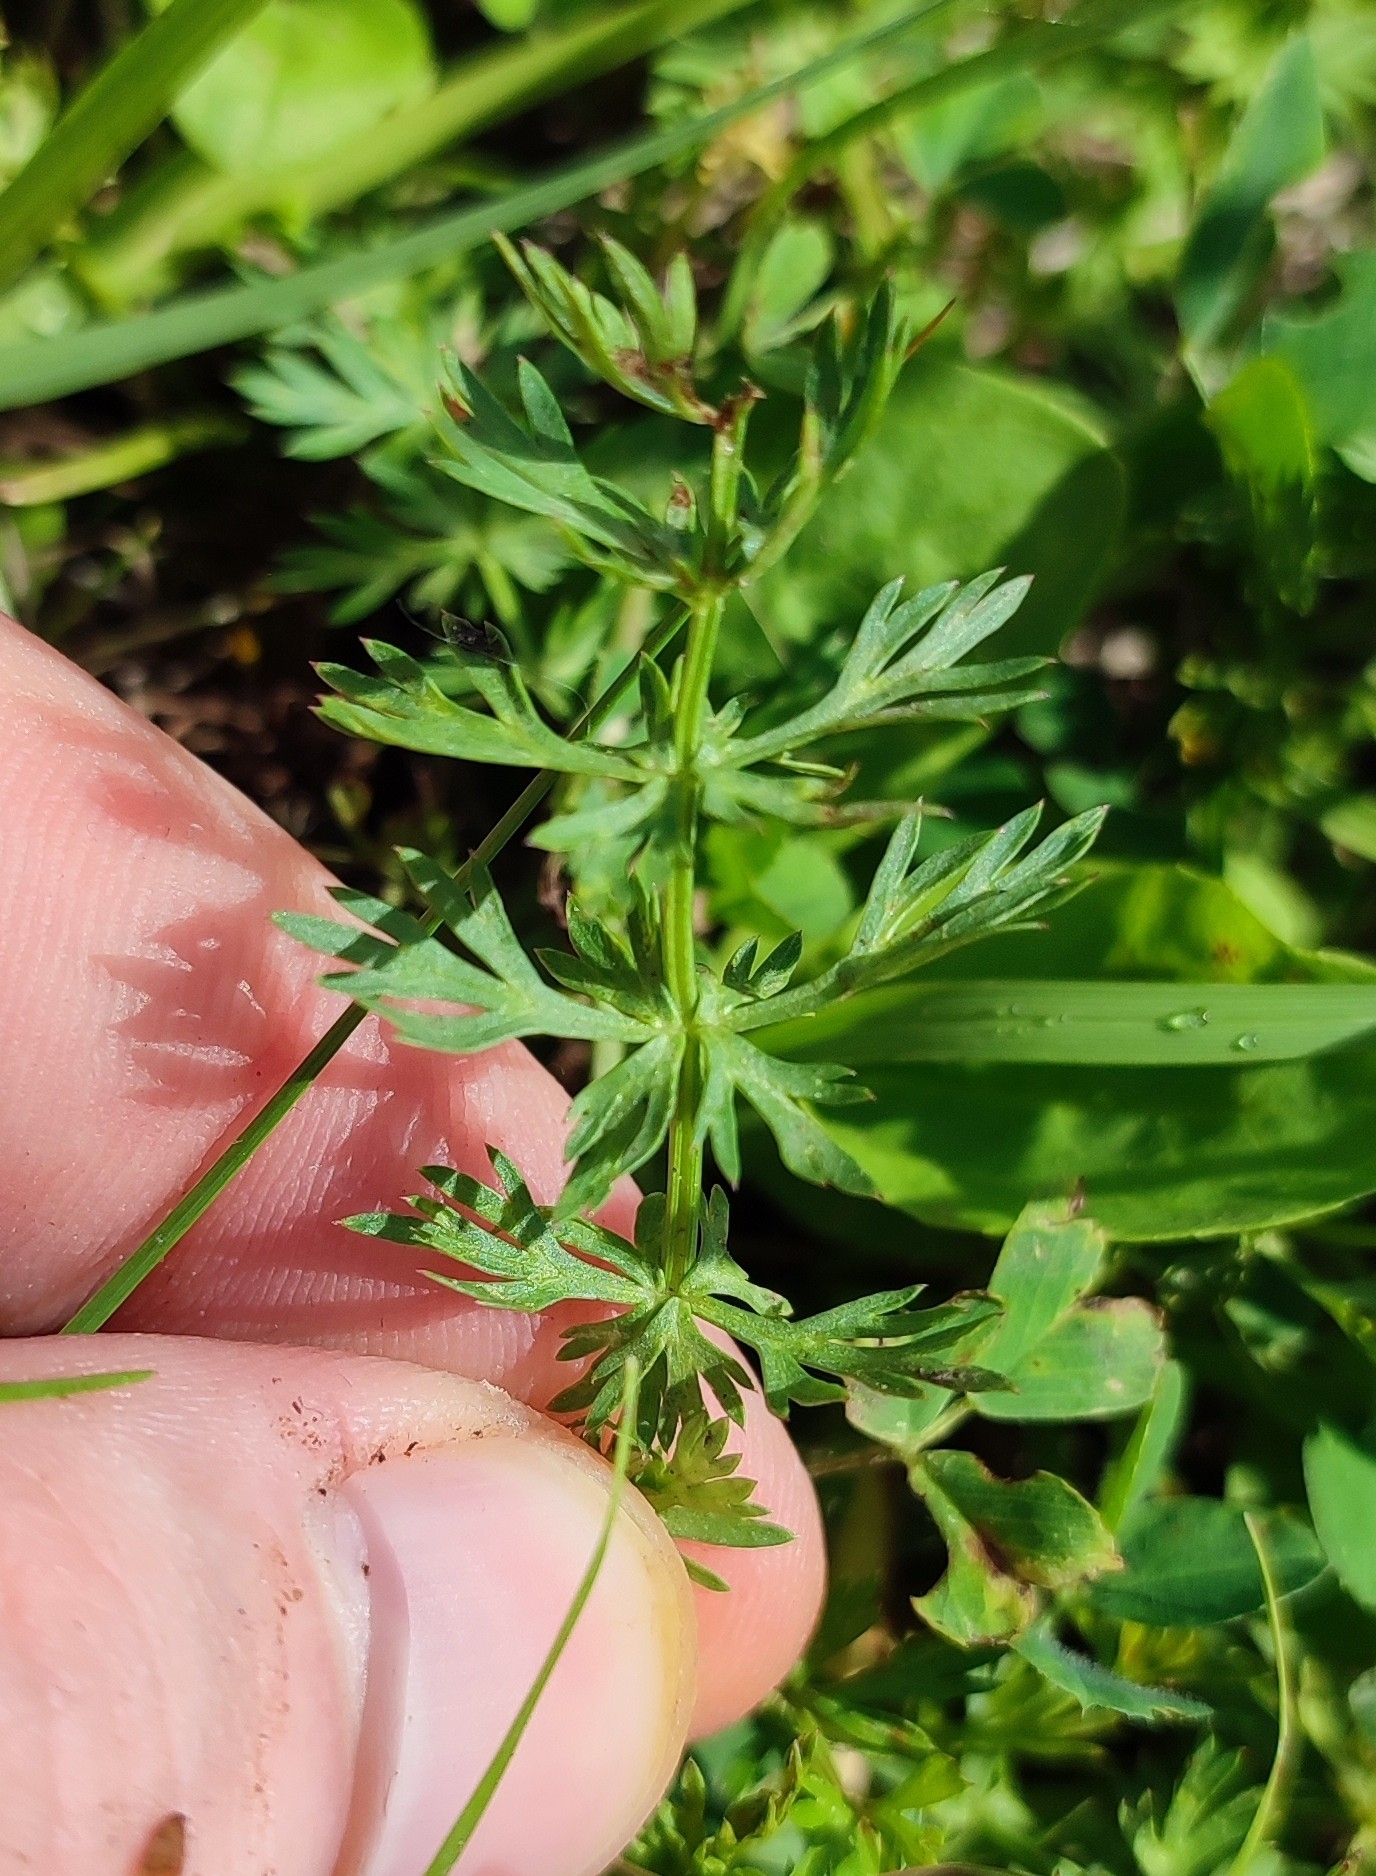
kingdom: Plantae
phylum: Tracheophyta
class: Magnoliopsida
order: Apiales
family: Apiaceae
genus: Carum
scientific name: Carum carvi
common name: Caraway
